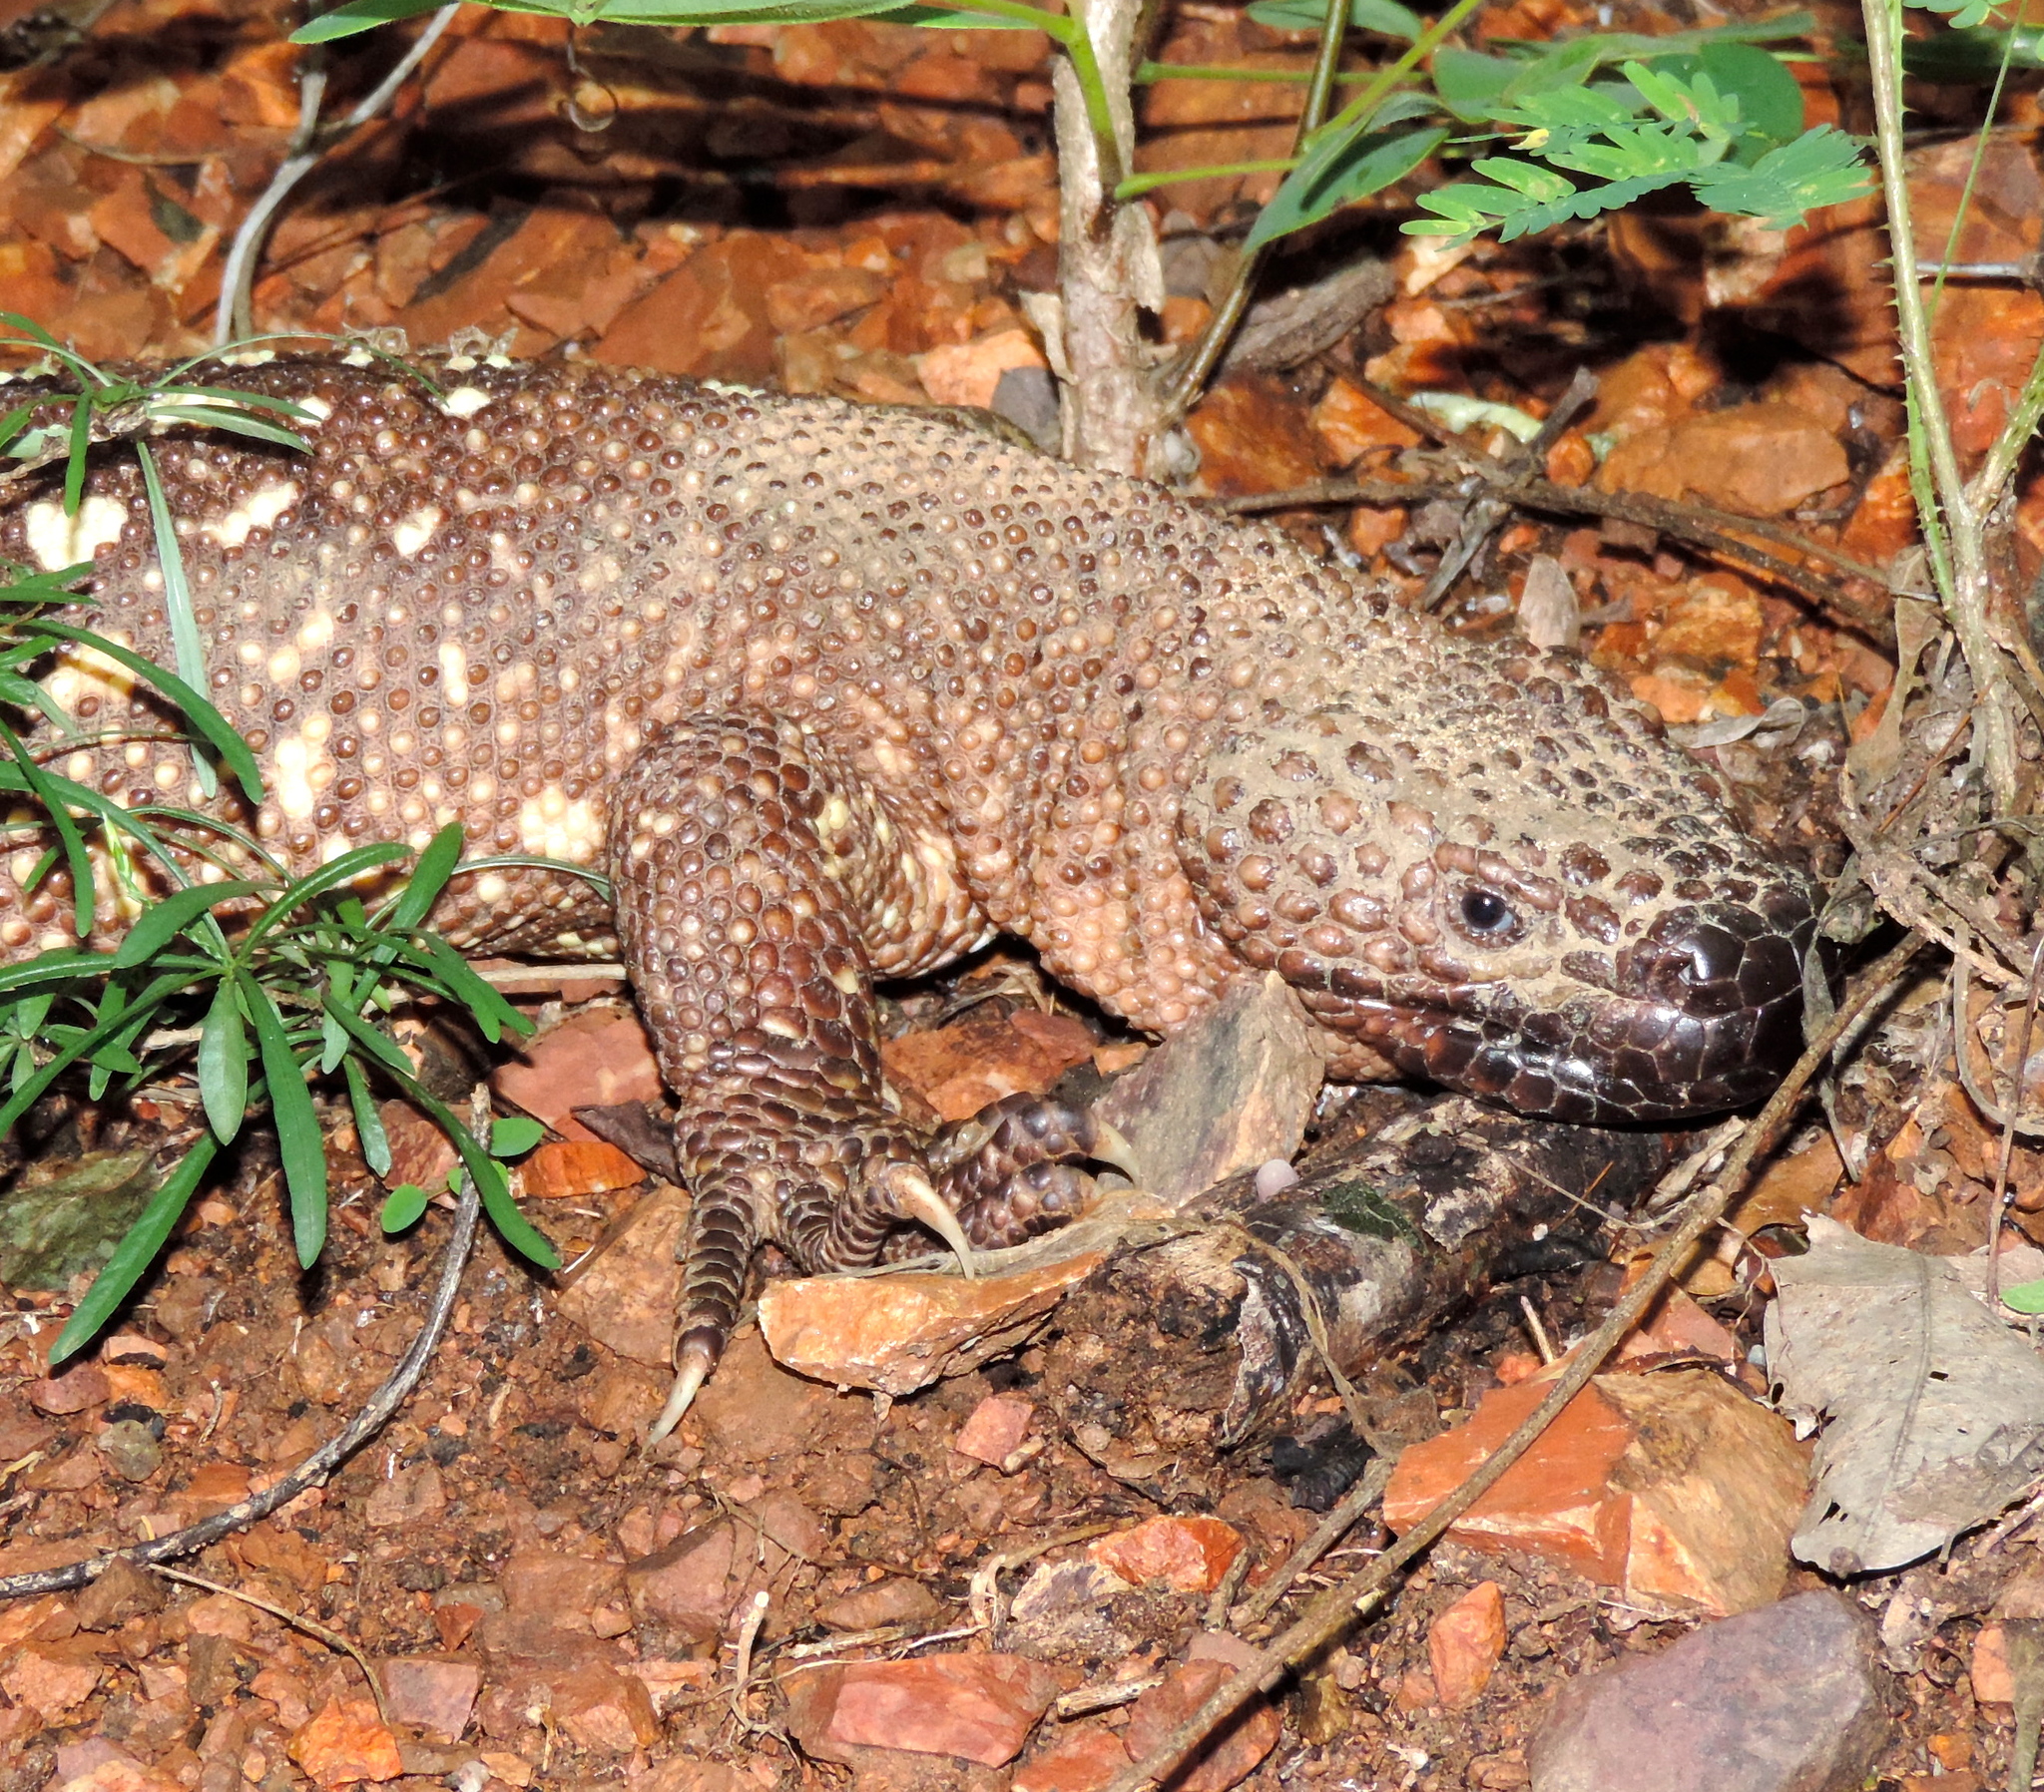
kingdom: Animalia
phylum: Chordata
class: Squamata
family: Helodermatidae
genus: Heloderma
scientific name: Heloderma horridum
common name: Mexican beaded lizard
